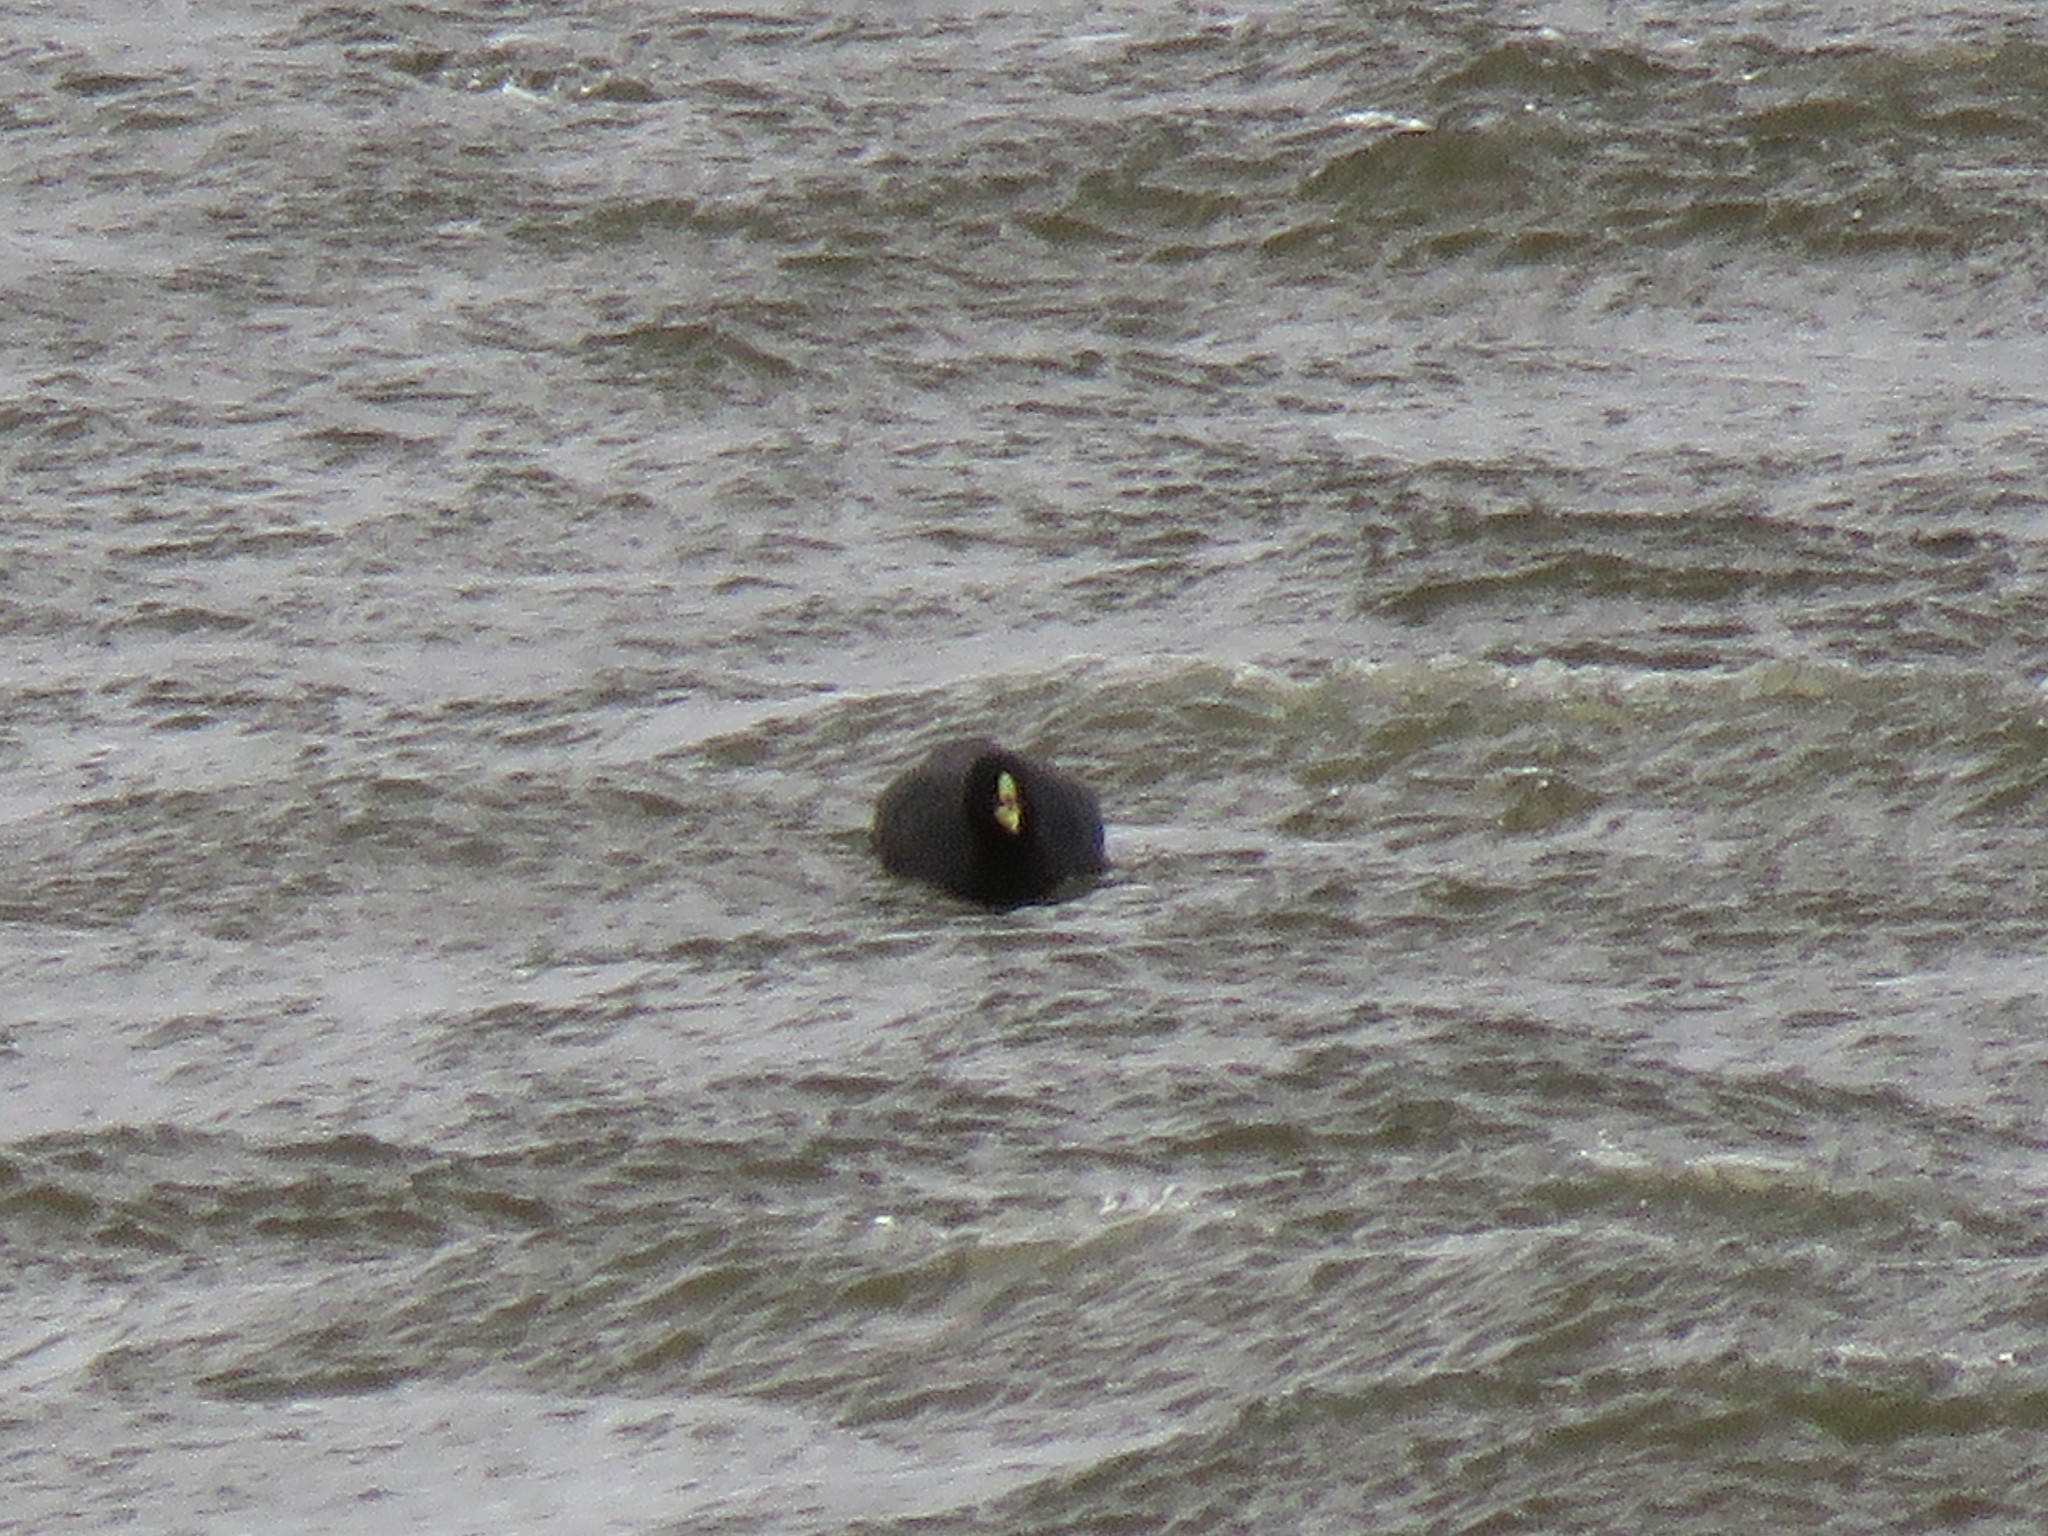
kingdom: Animalia
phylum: Chordata
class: Aves
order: Gruiformes
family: Rallidae
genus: Fulica
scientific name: Fulica armillata
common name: Red-gartered coot
